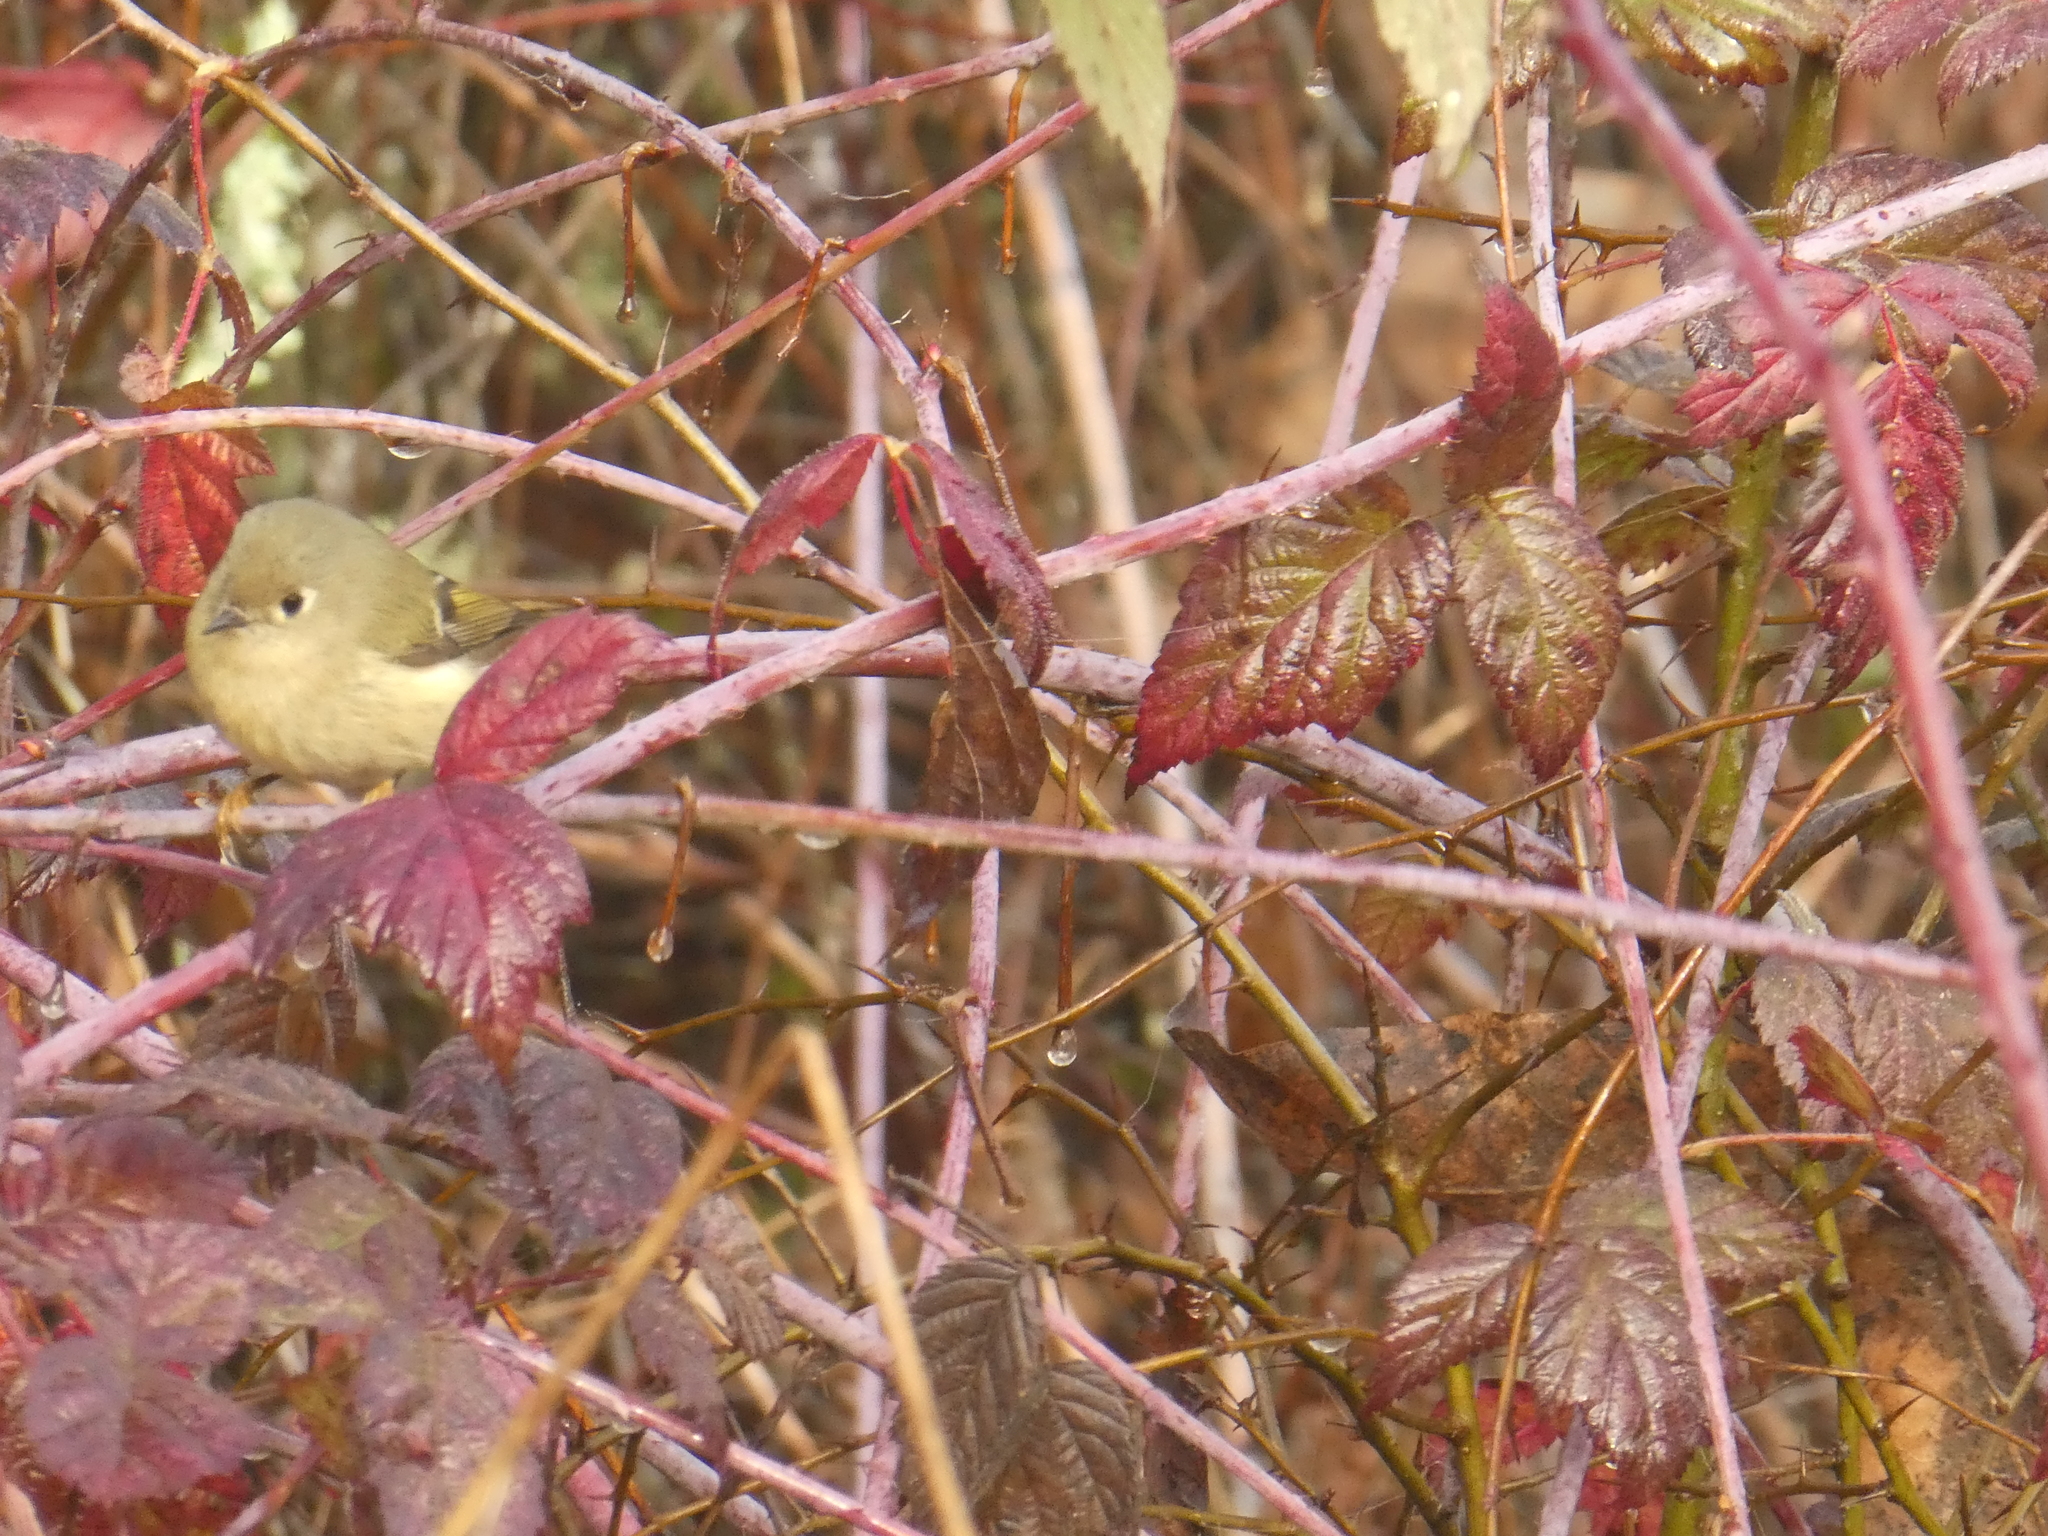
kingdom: Animalia
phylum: Chordata
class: Aves
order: Passeriformes
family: Regulidae
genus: Regulus
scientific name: Regulus calendula
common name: Ruby-crowned kinglet
